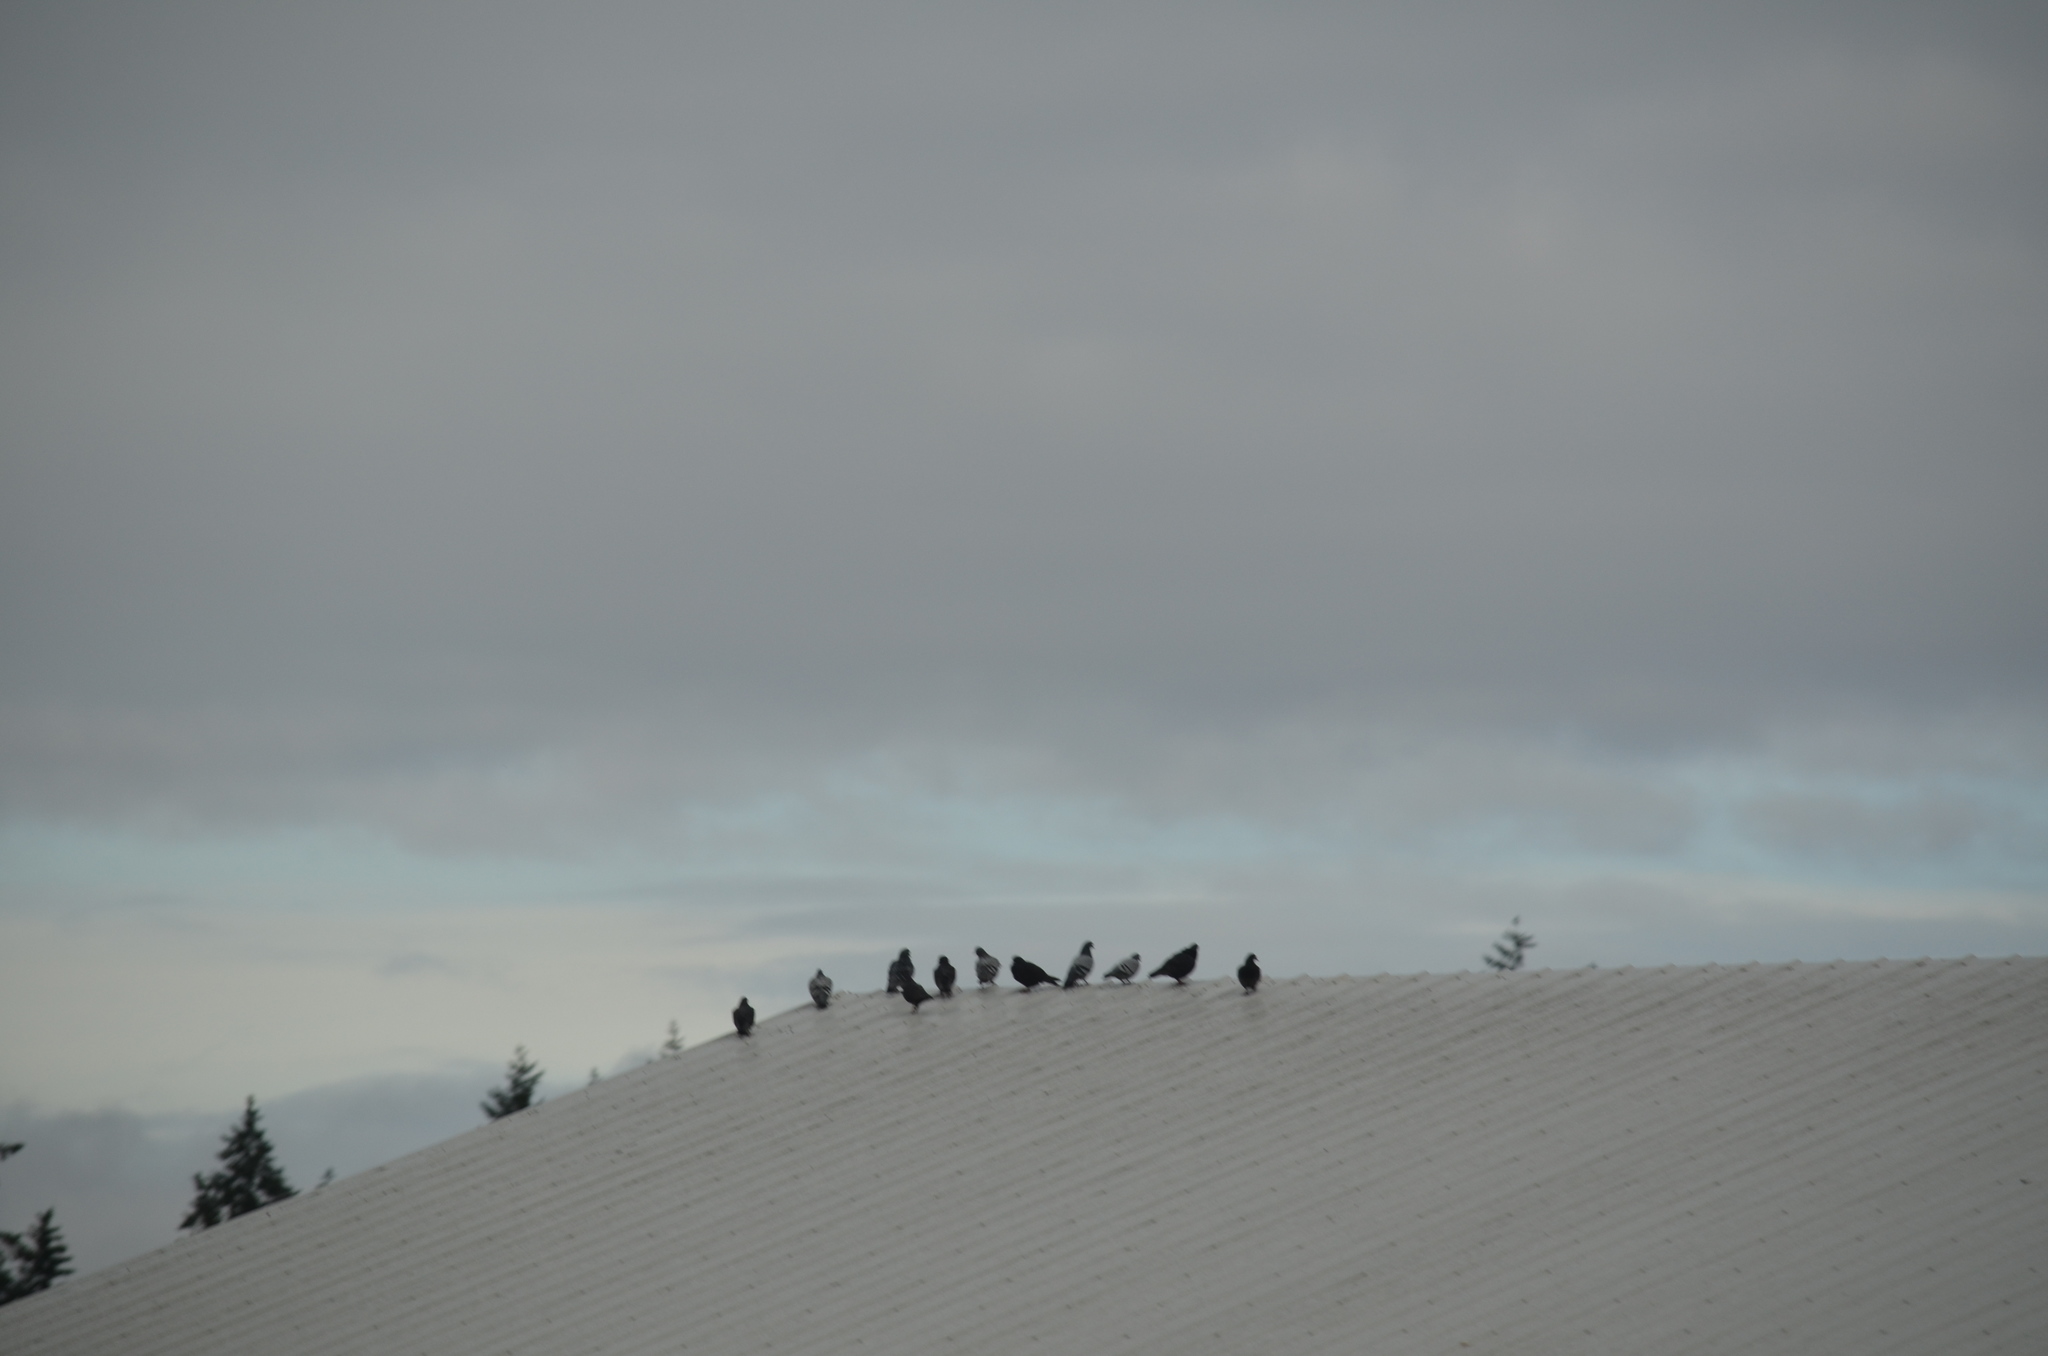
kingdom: Animalia
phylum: Chordata
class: Aves
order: Columbiformes
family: Columbidae
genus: Columba
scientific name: Columba livia
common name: Rock pigeon
